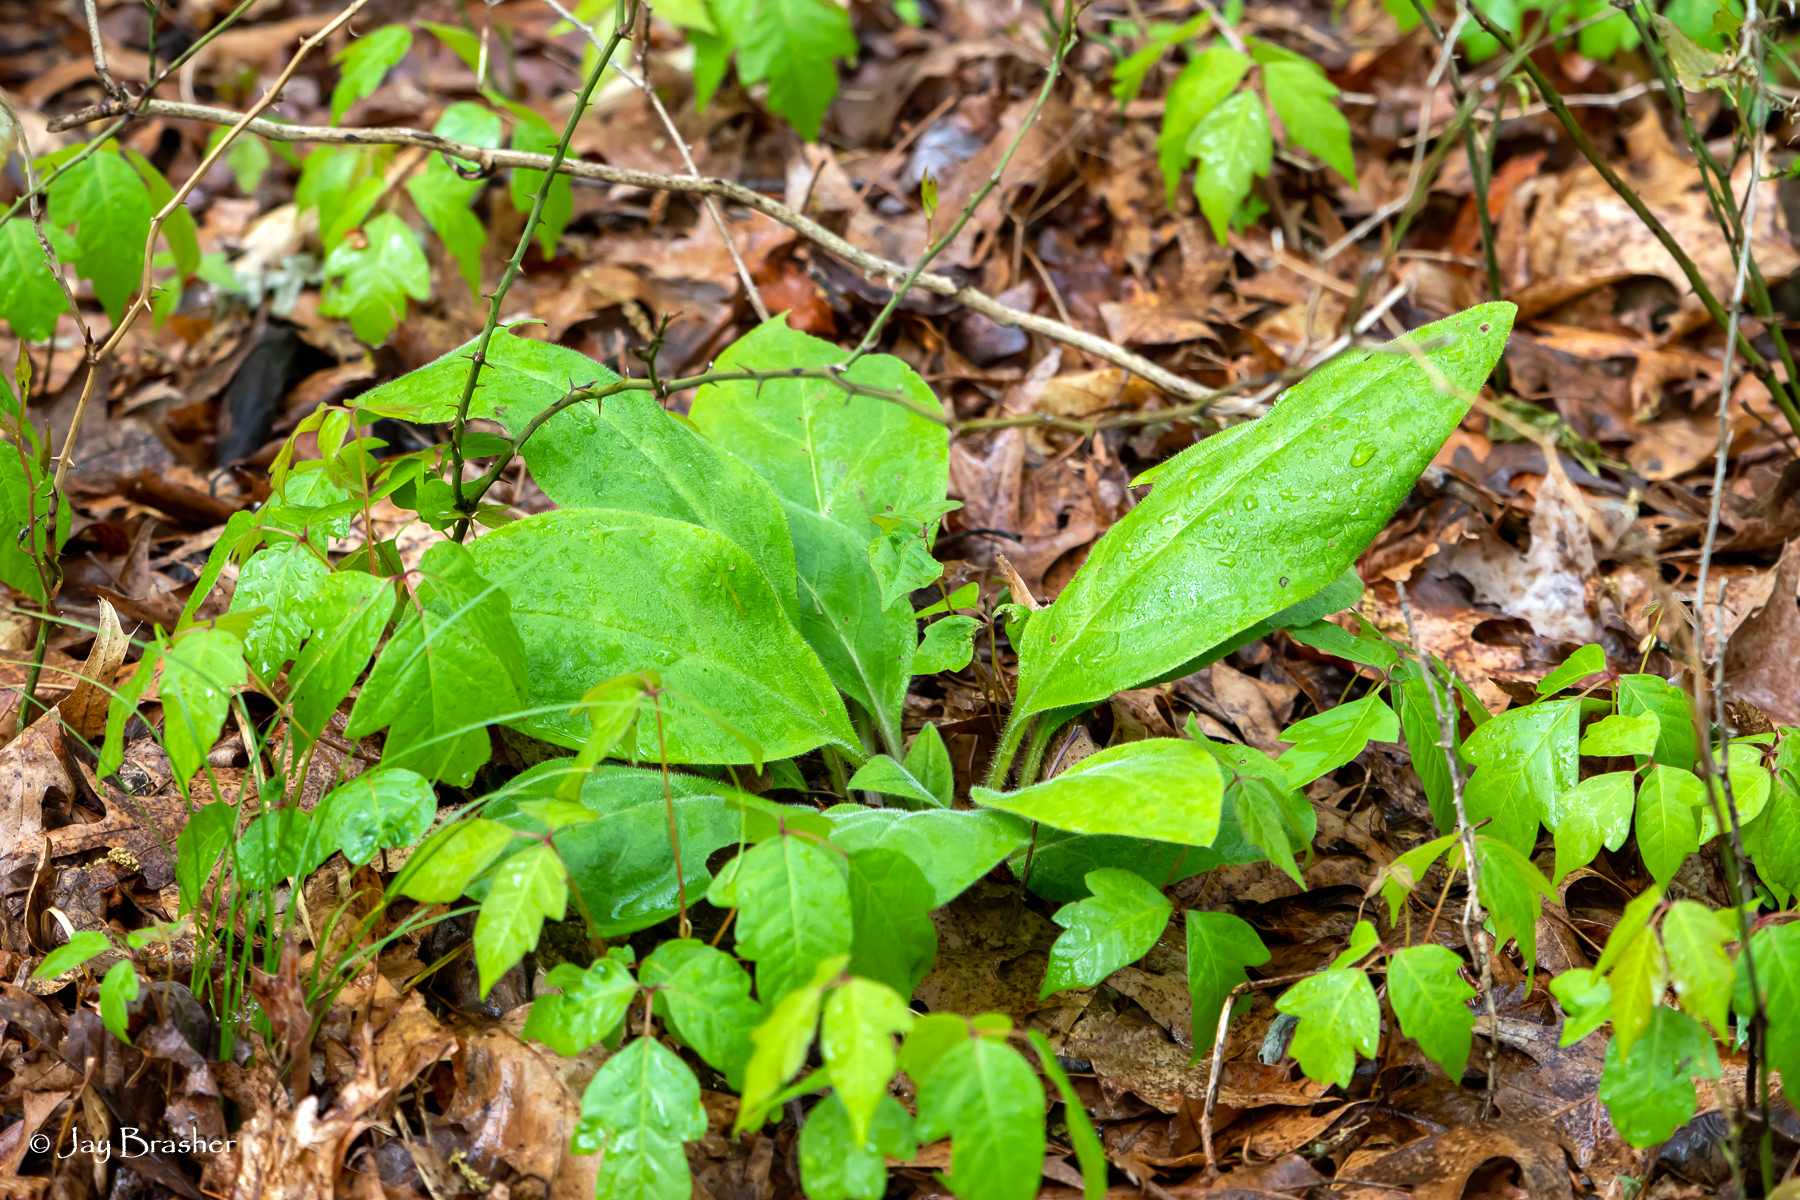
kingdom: Plantae
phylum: Tracheophyta
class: Magnoliopsida
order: Boraginales
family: Boraginaceae
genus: Andersonglossum
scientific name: Andersonglossum virginianum
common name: Wild comfrey
